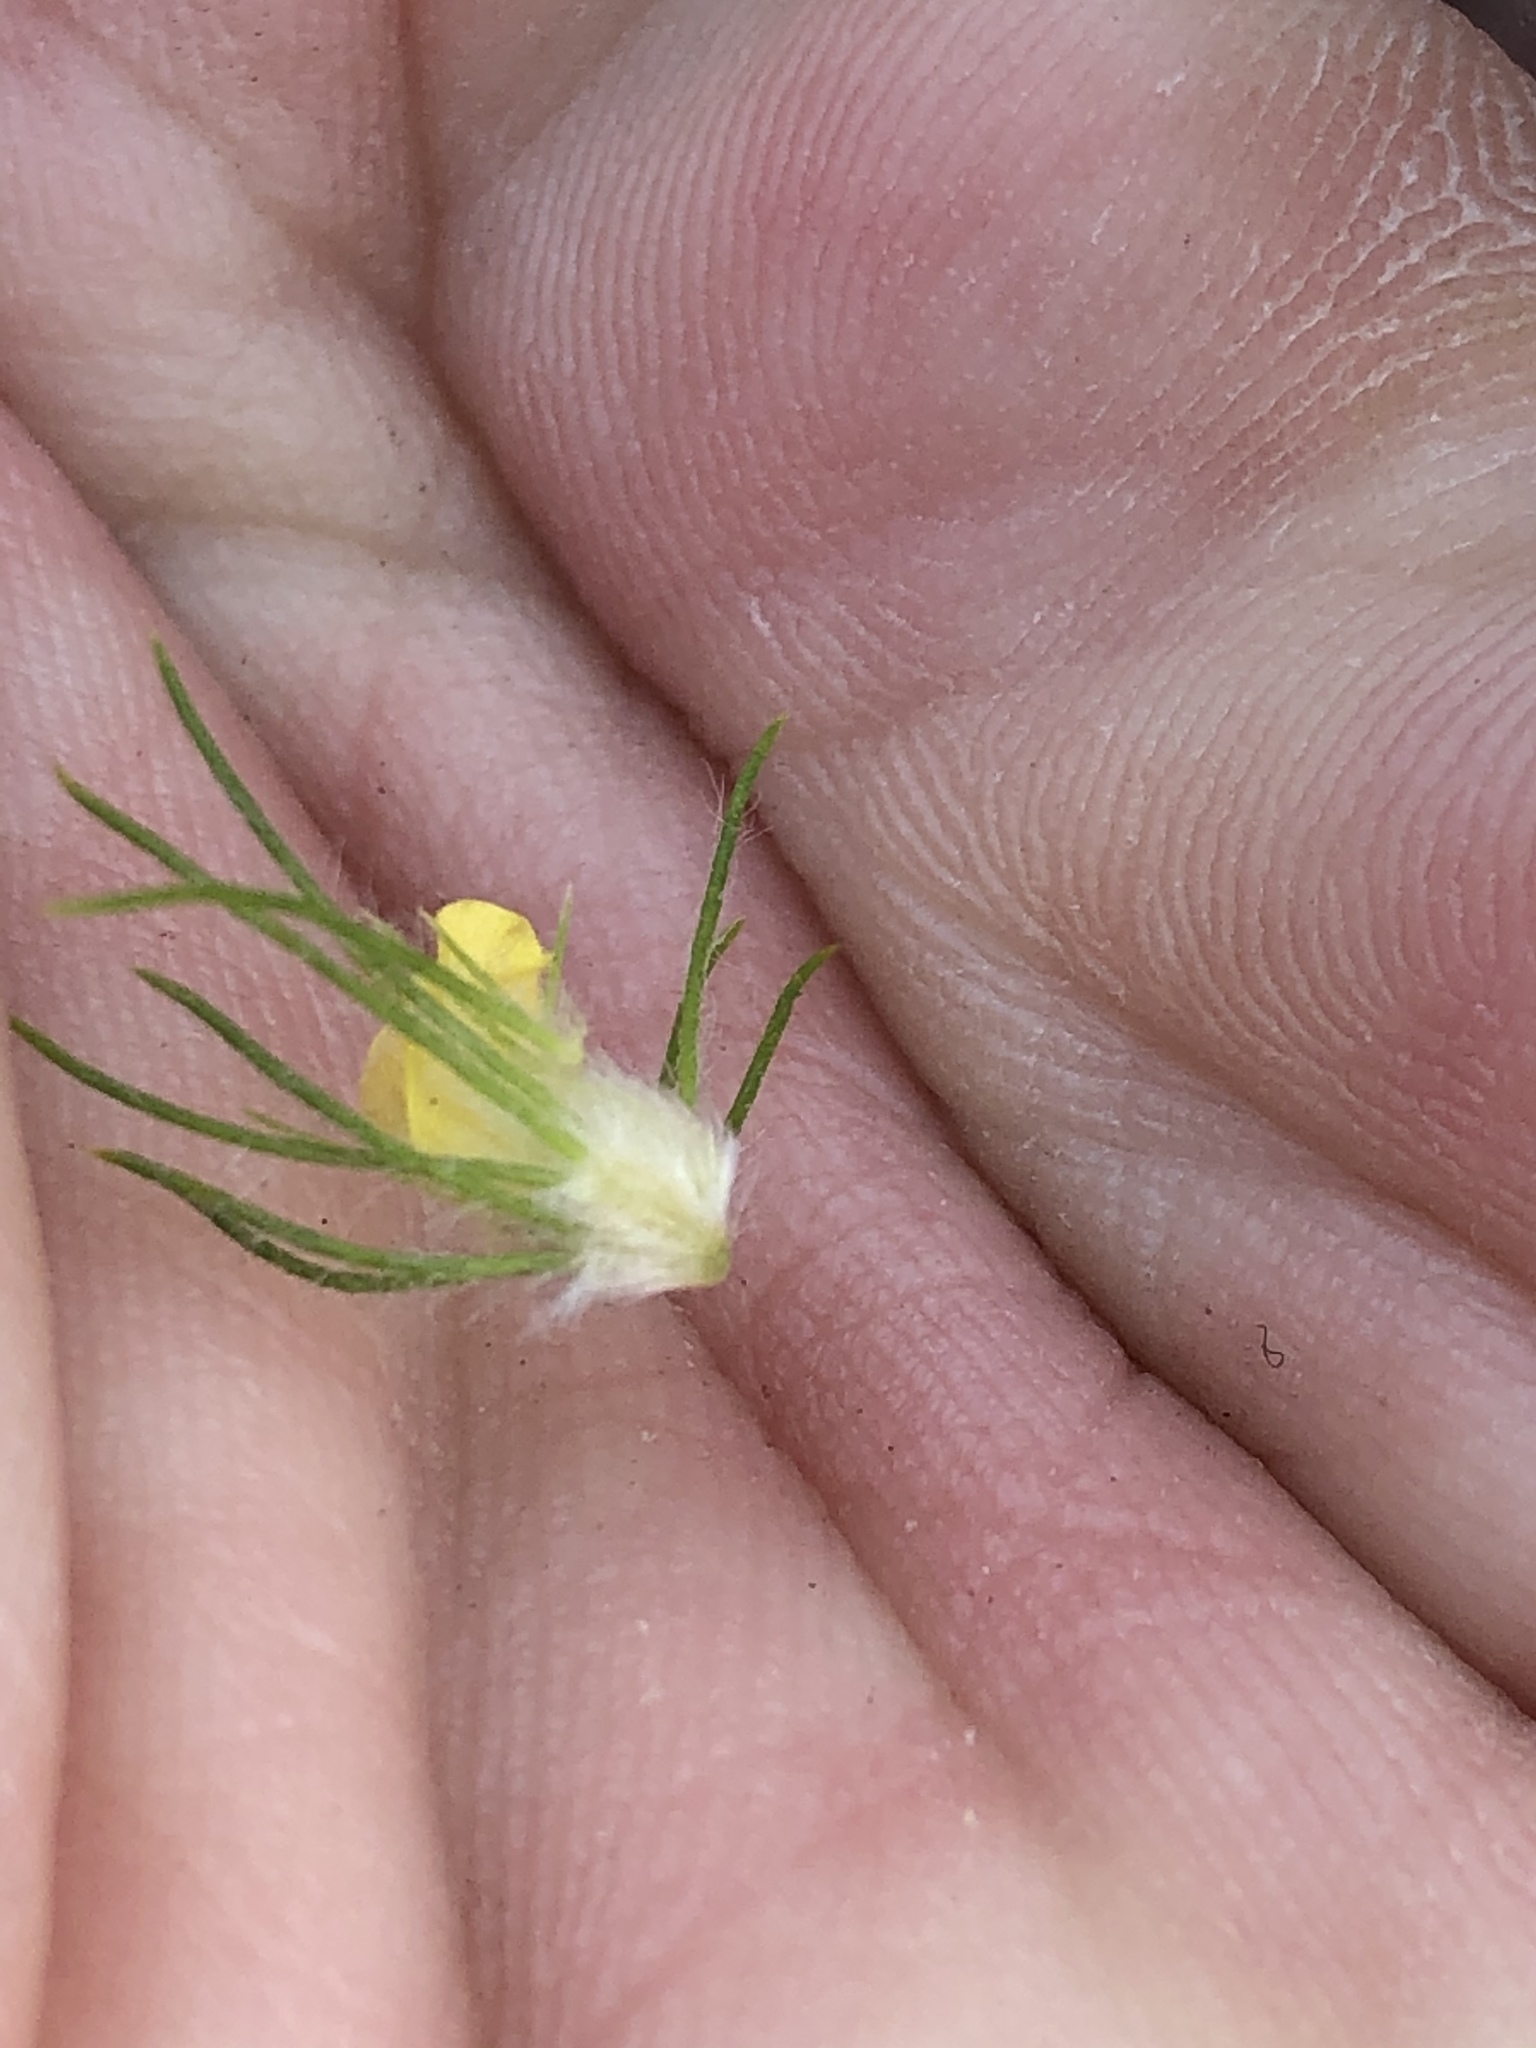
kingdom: Plantae
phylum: Tracheophyta
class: Magnoliopsida
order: Fabales
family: Fabaceae
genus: Aspalathus
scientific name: Aspalathus alopecurus
